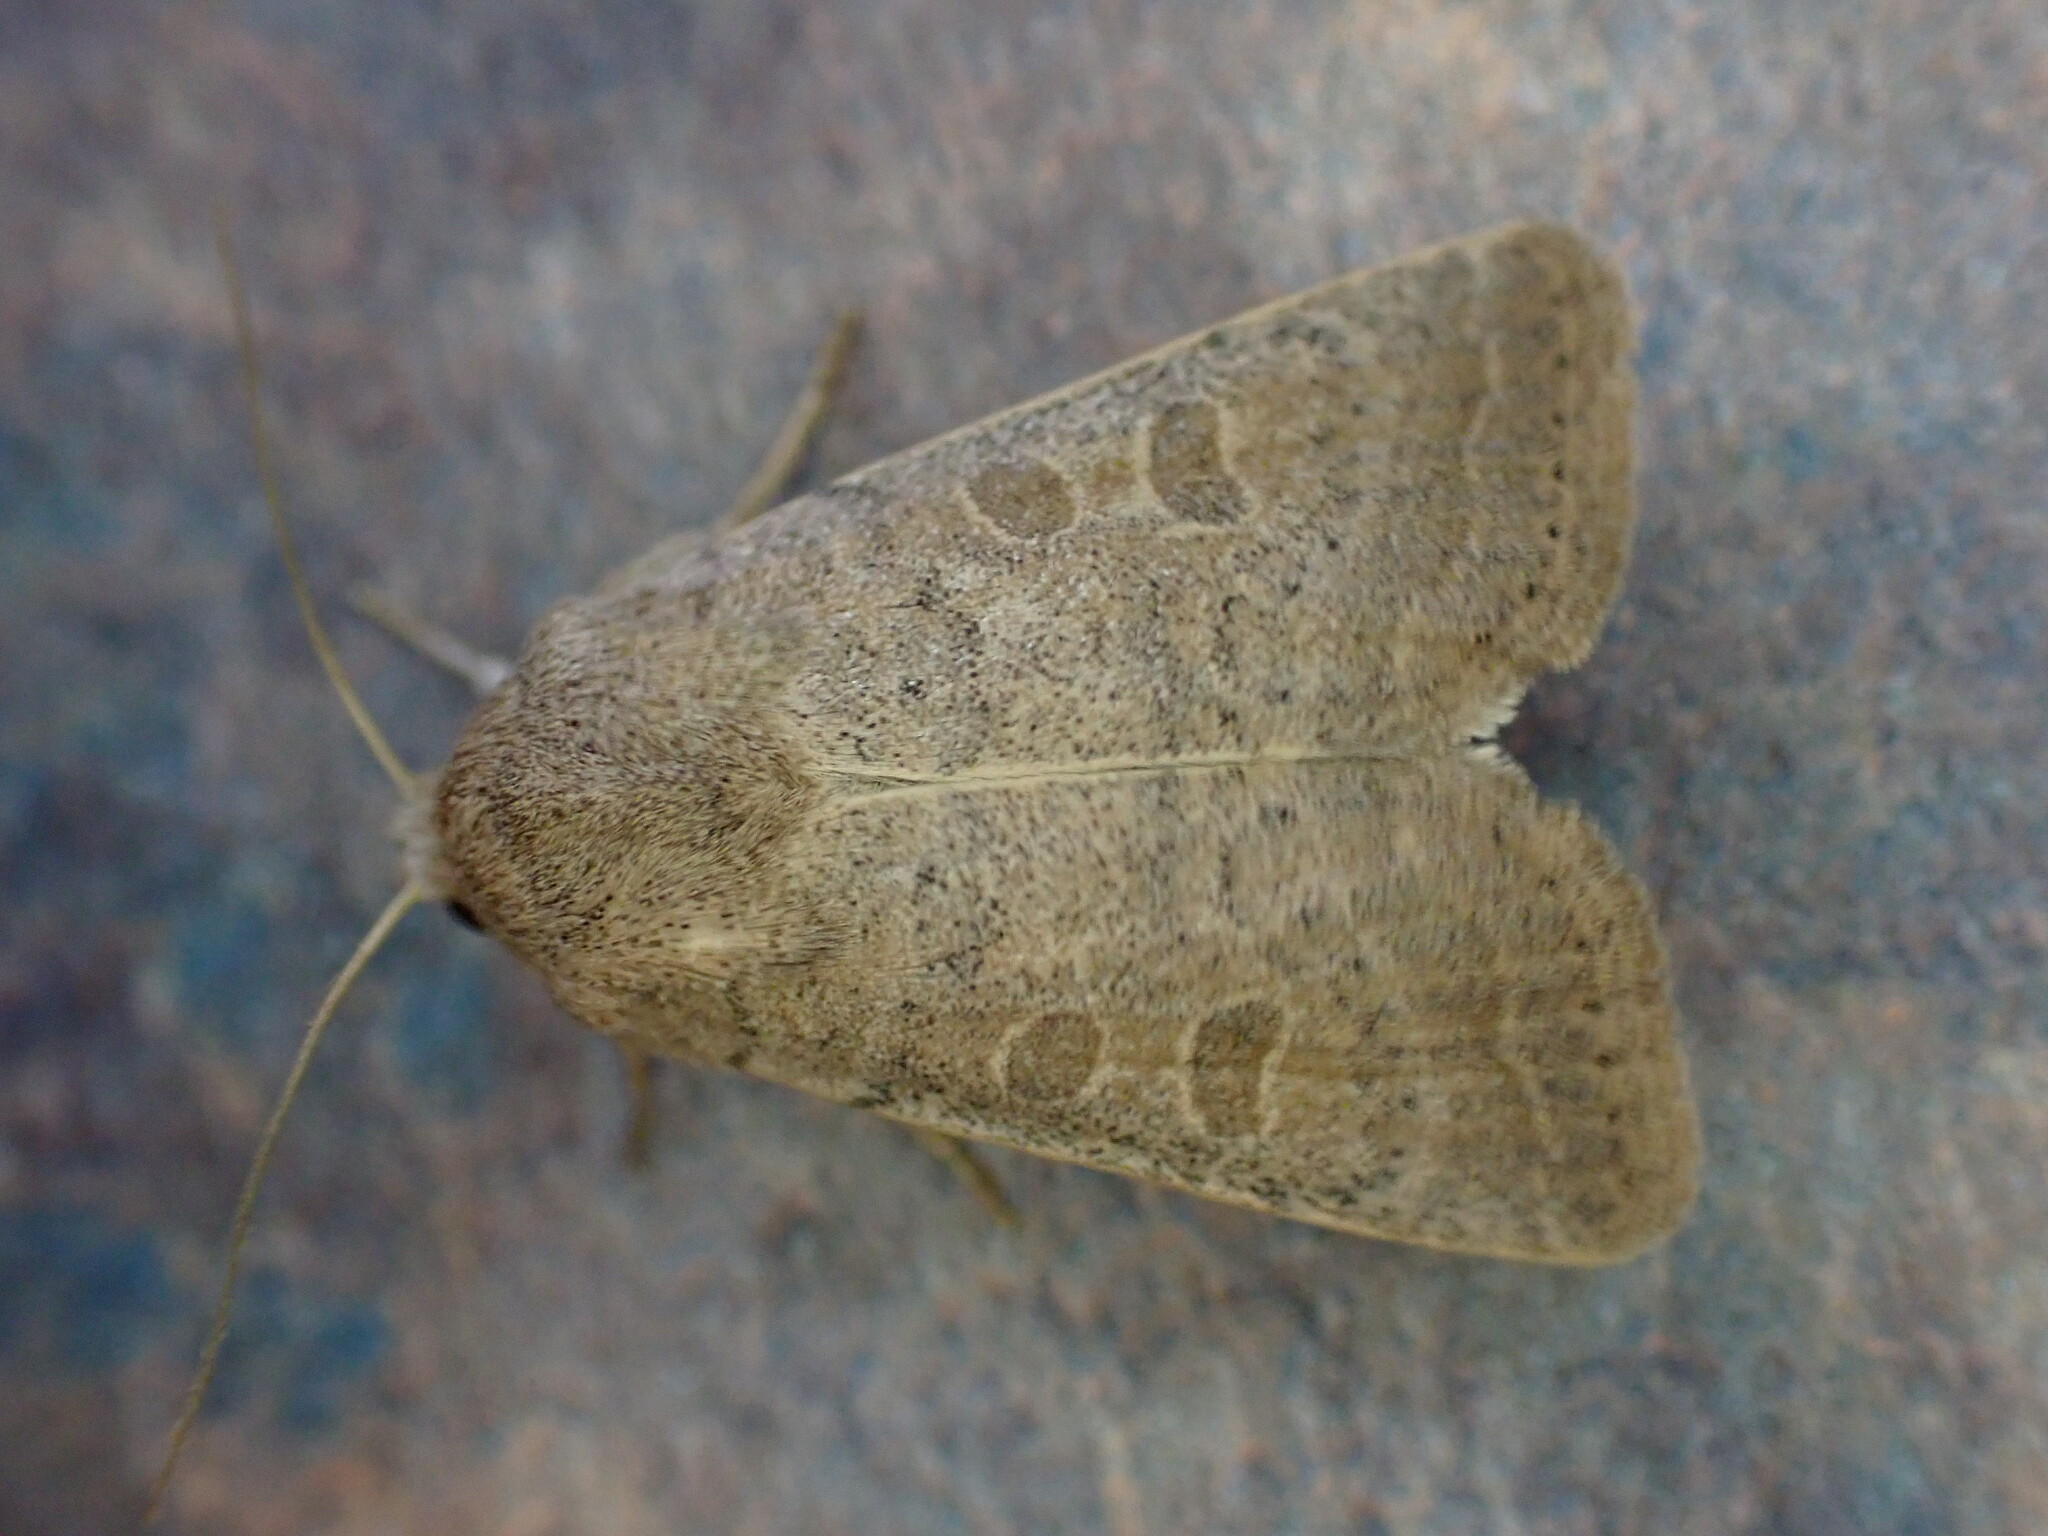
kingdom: Animalia
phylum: Arthropoda
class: Insecta
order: Lepidoptera
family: Noctuidae
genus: Hoplodrina
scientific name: Hoplodrina ambigua
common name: Vine's rustic
